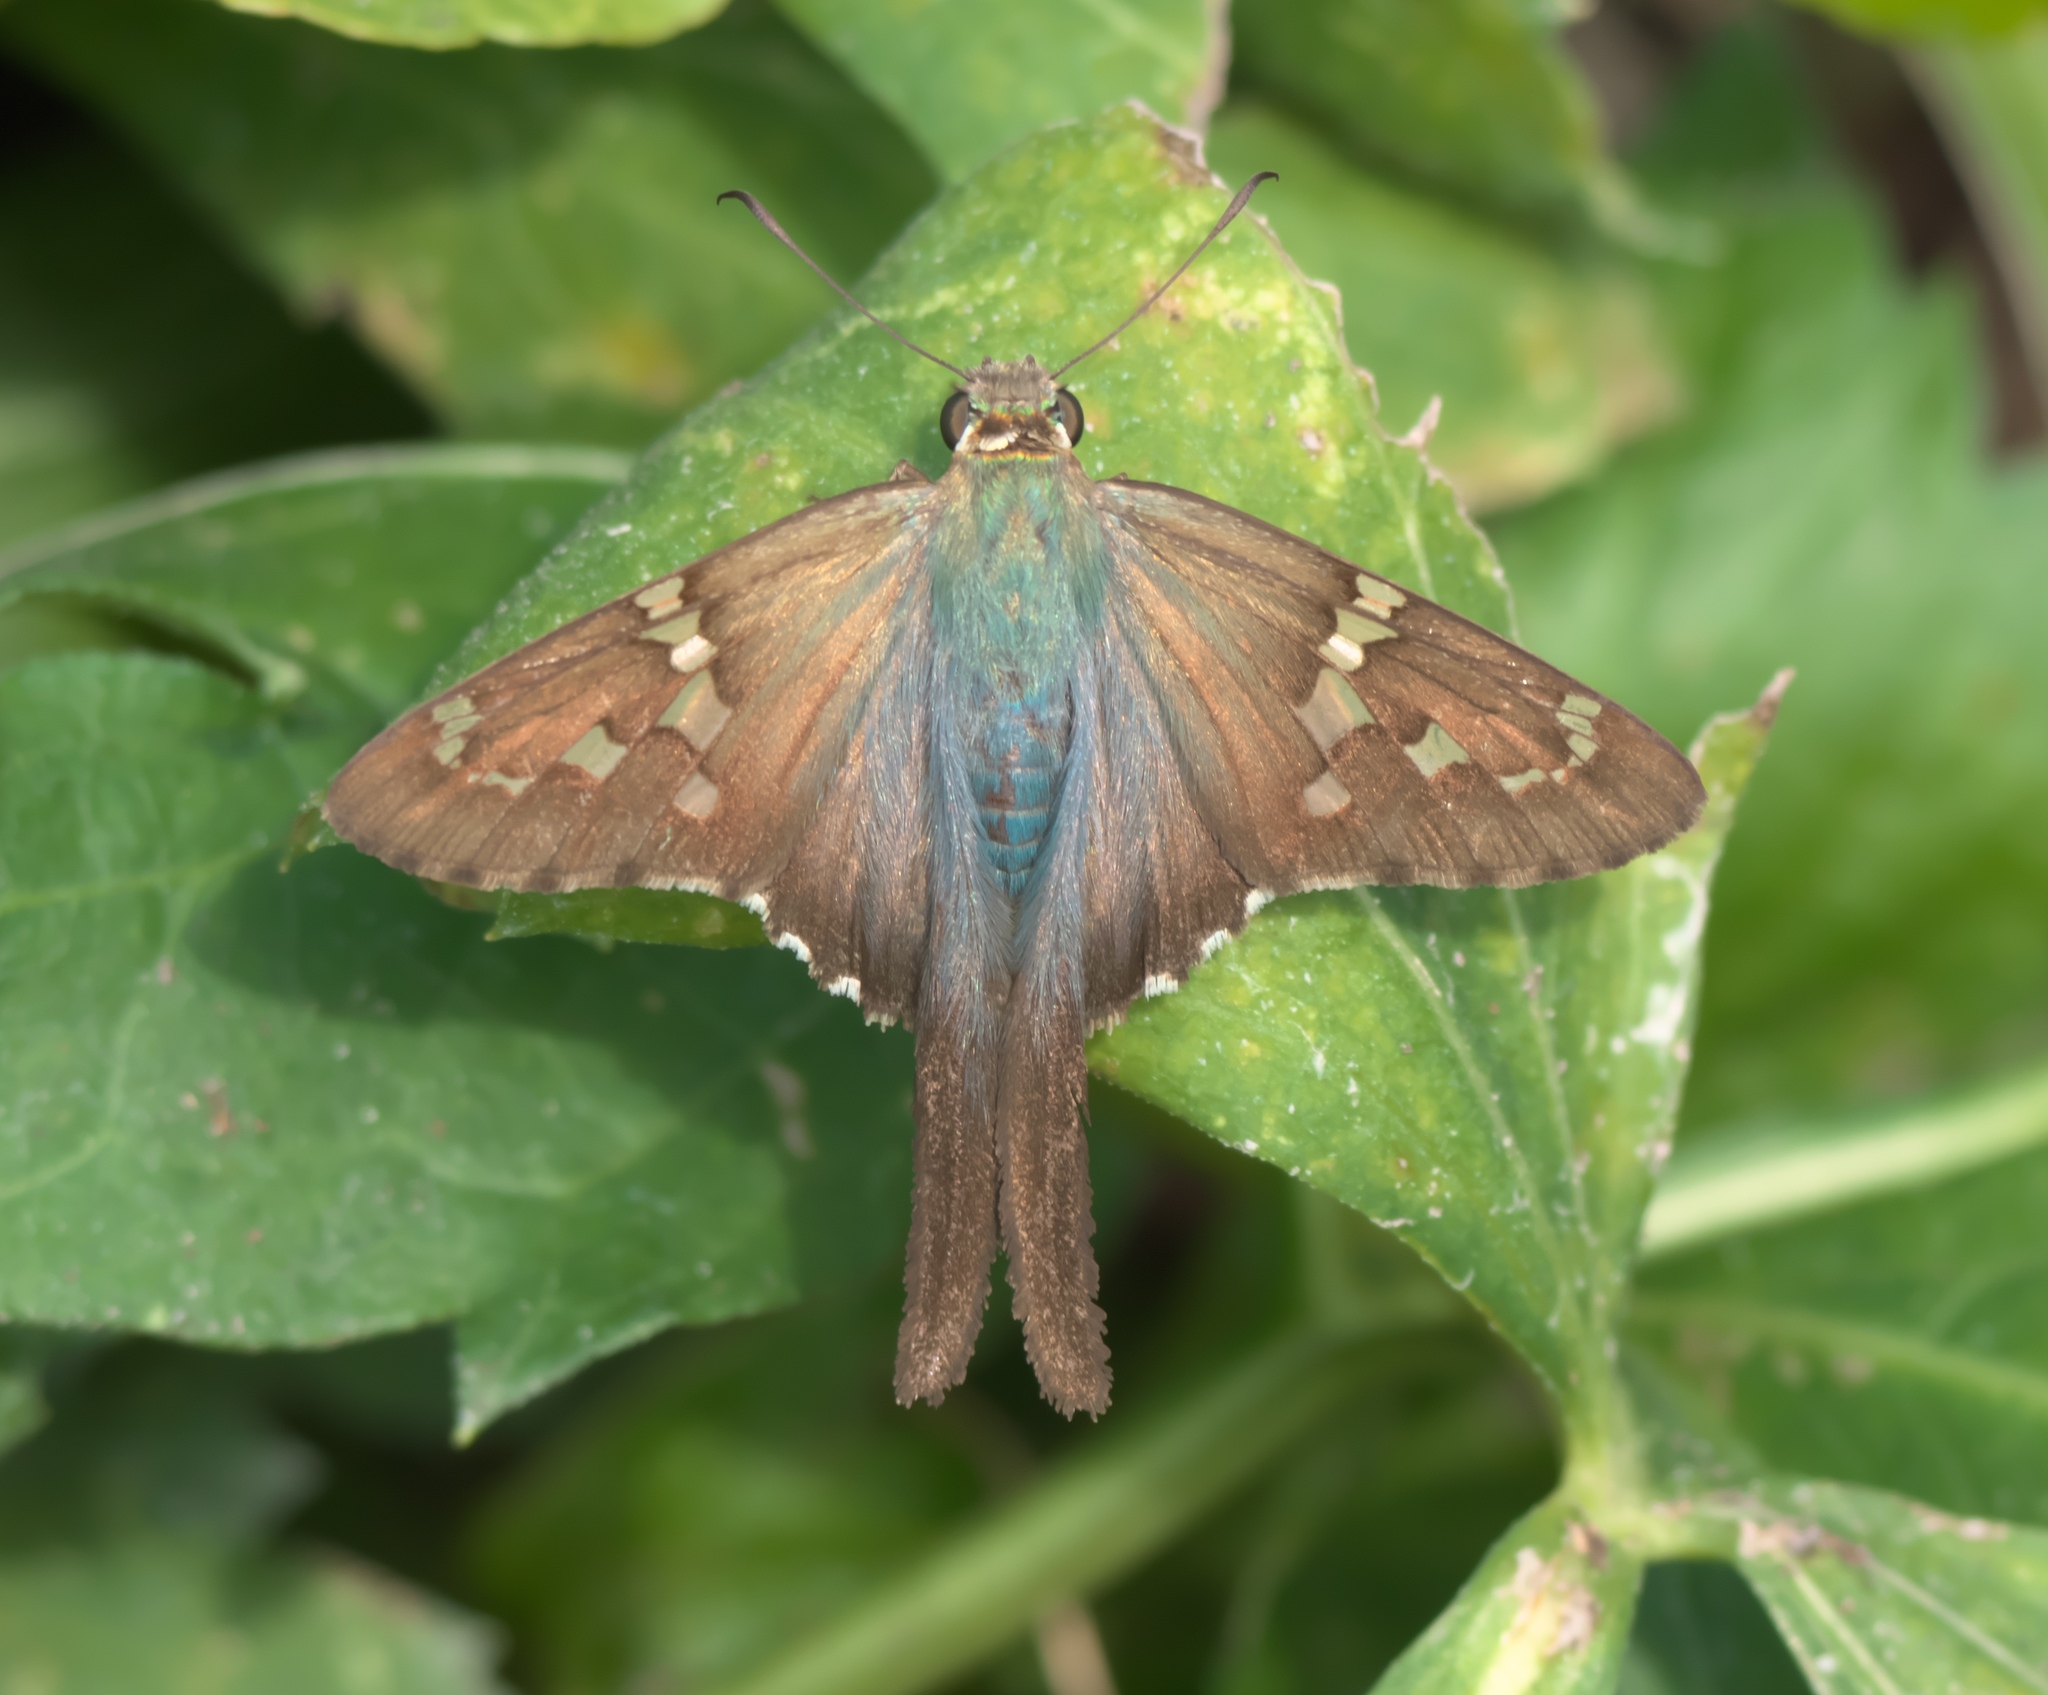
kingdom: Animalia
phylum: Arthropoda
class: Insecta
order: Lepidoptera
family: Hesperiidae
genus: Urbanus
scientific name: Urbanus proteus
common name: Long-tailed skipper
